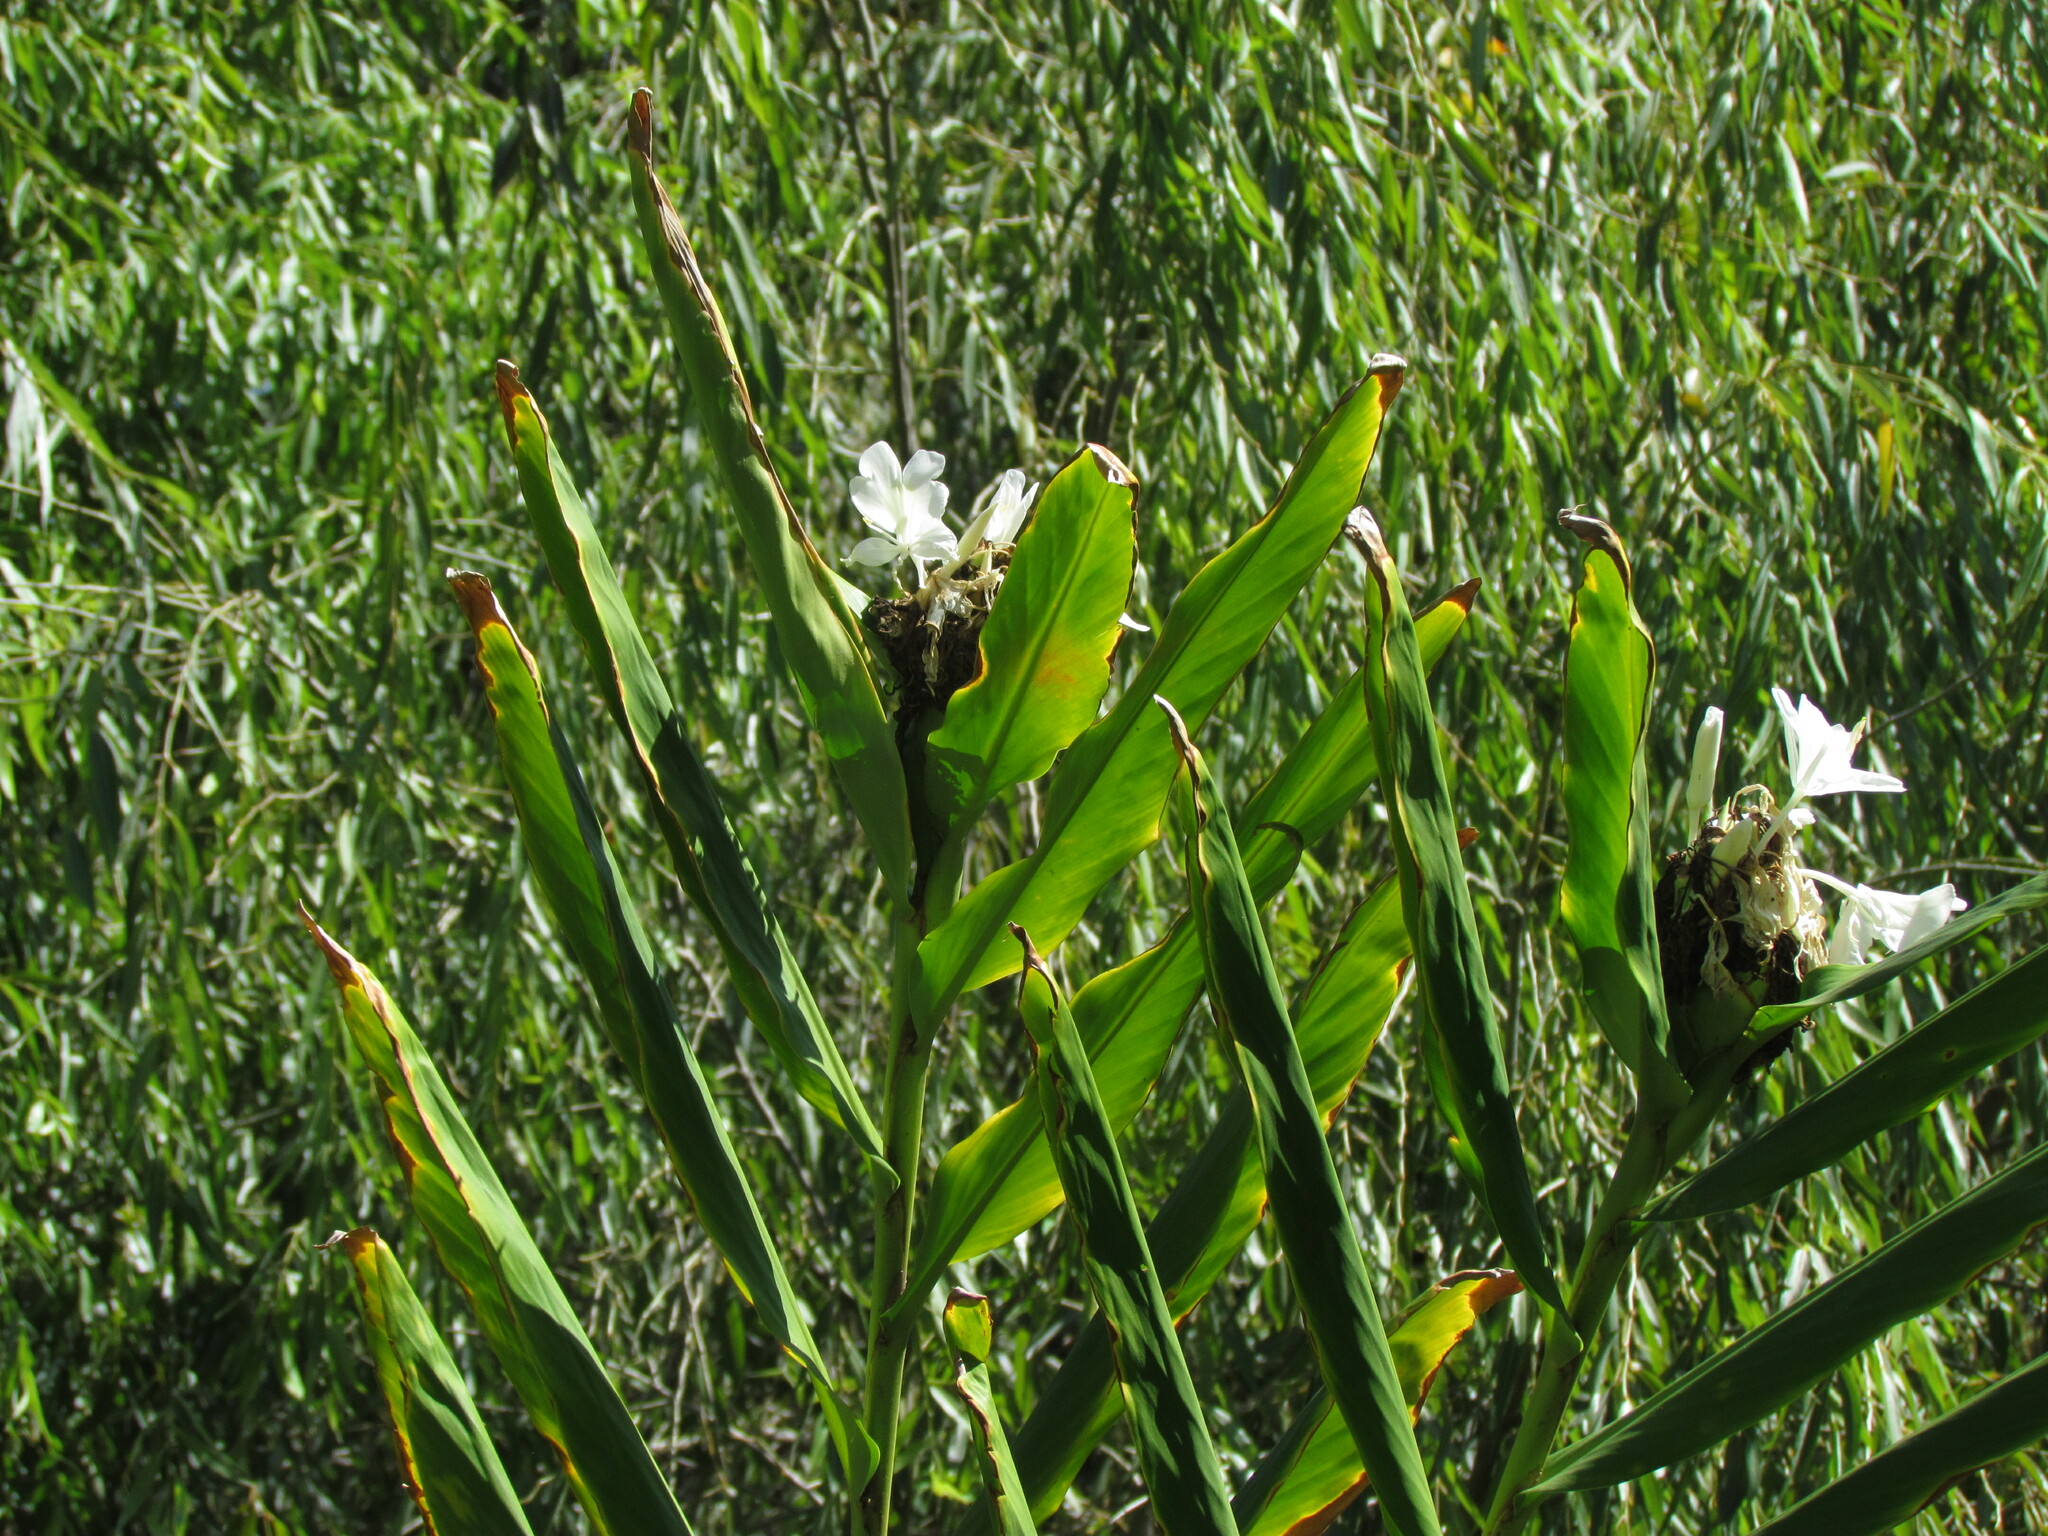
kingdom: Plantae
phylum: Tracheophyta
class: Liliopsida
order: Zingiberales
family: Zingiberaceae
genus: Hedychium
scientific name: Hedychium coronarium
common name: White garland-lily
